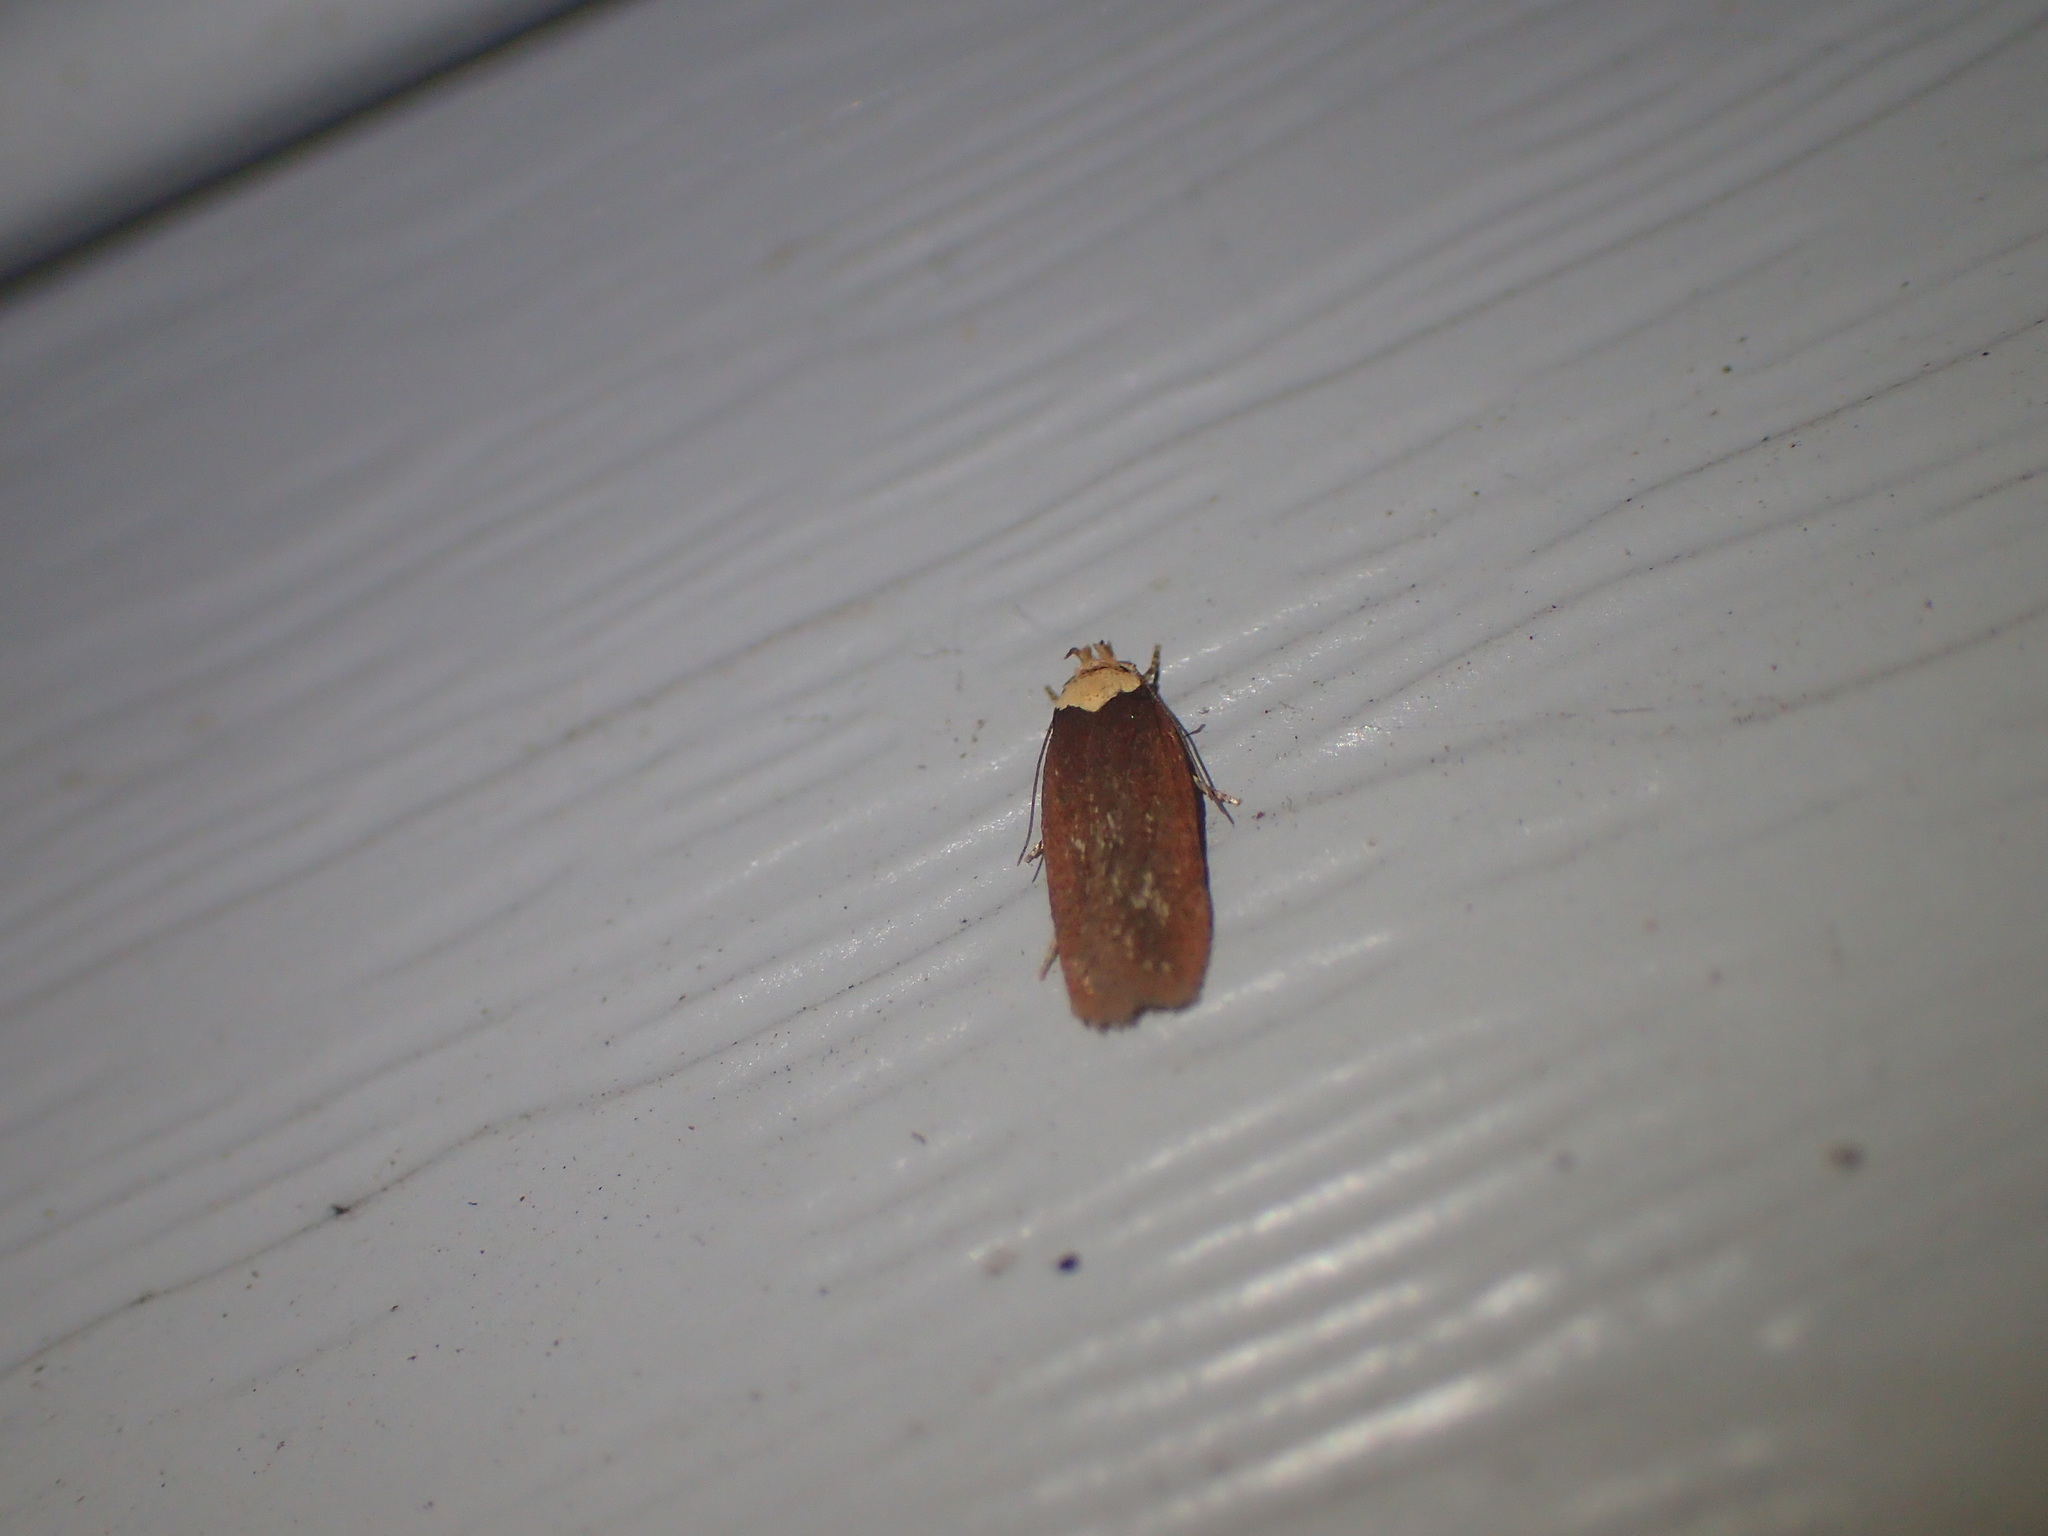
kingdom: Animalia
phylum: Arthropoda
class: Insecta
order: Lepidoptera
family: Depressariidae
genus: Depressaria
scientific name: Depressaria depressana
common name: Lost flat-body
